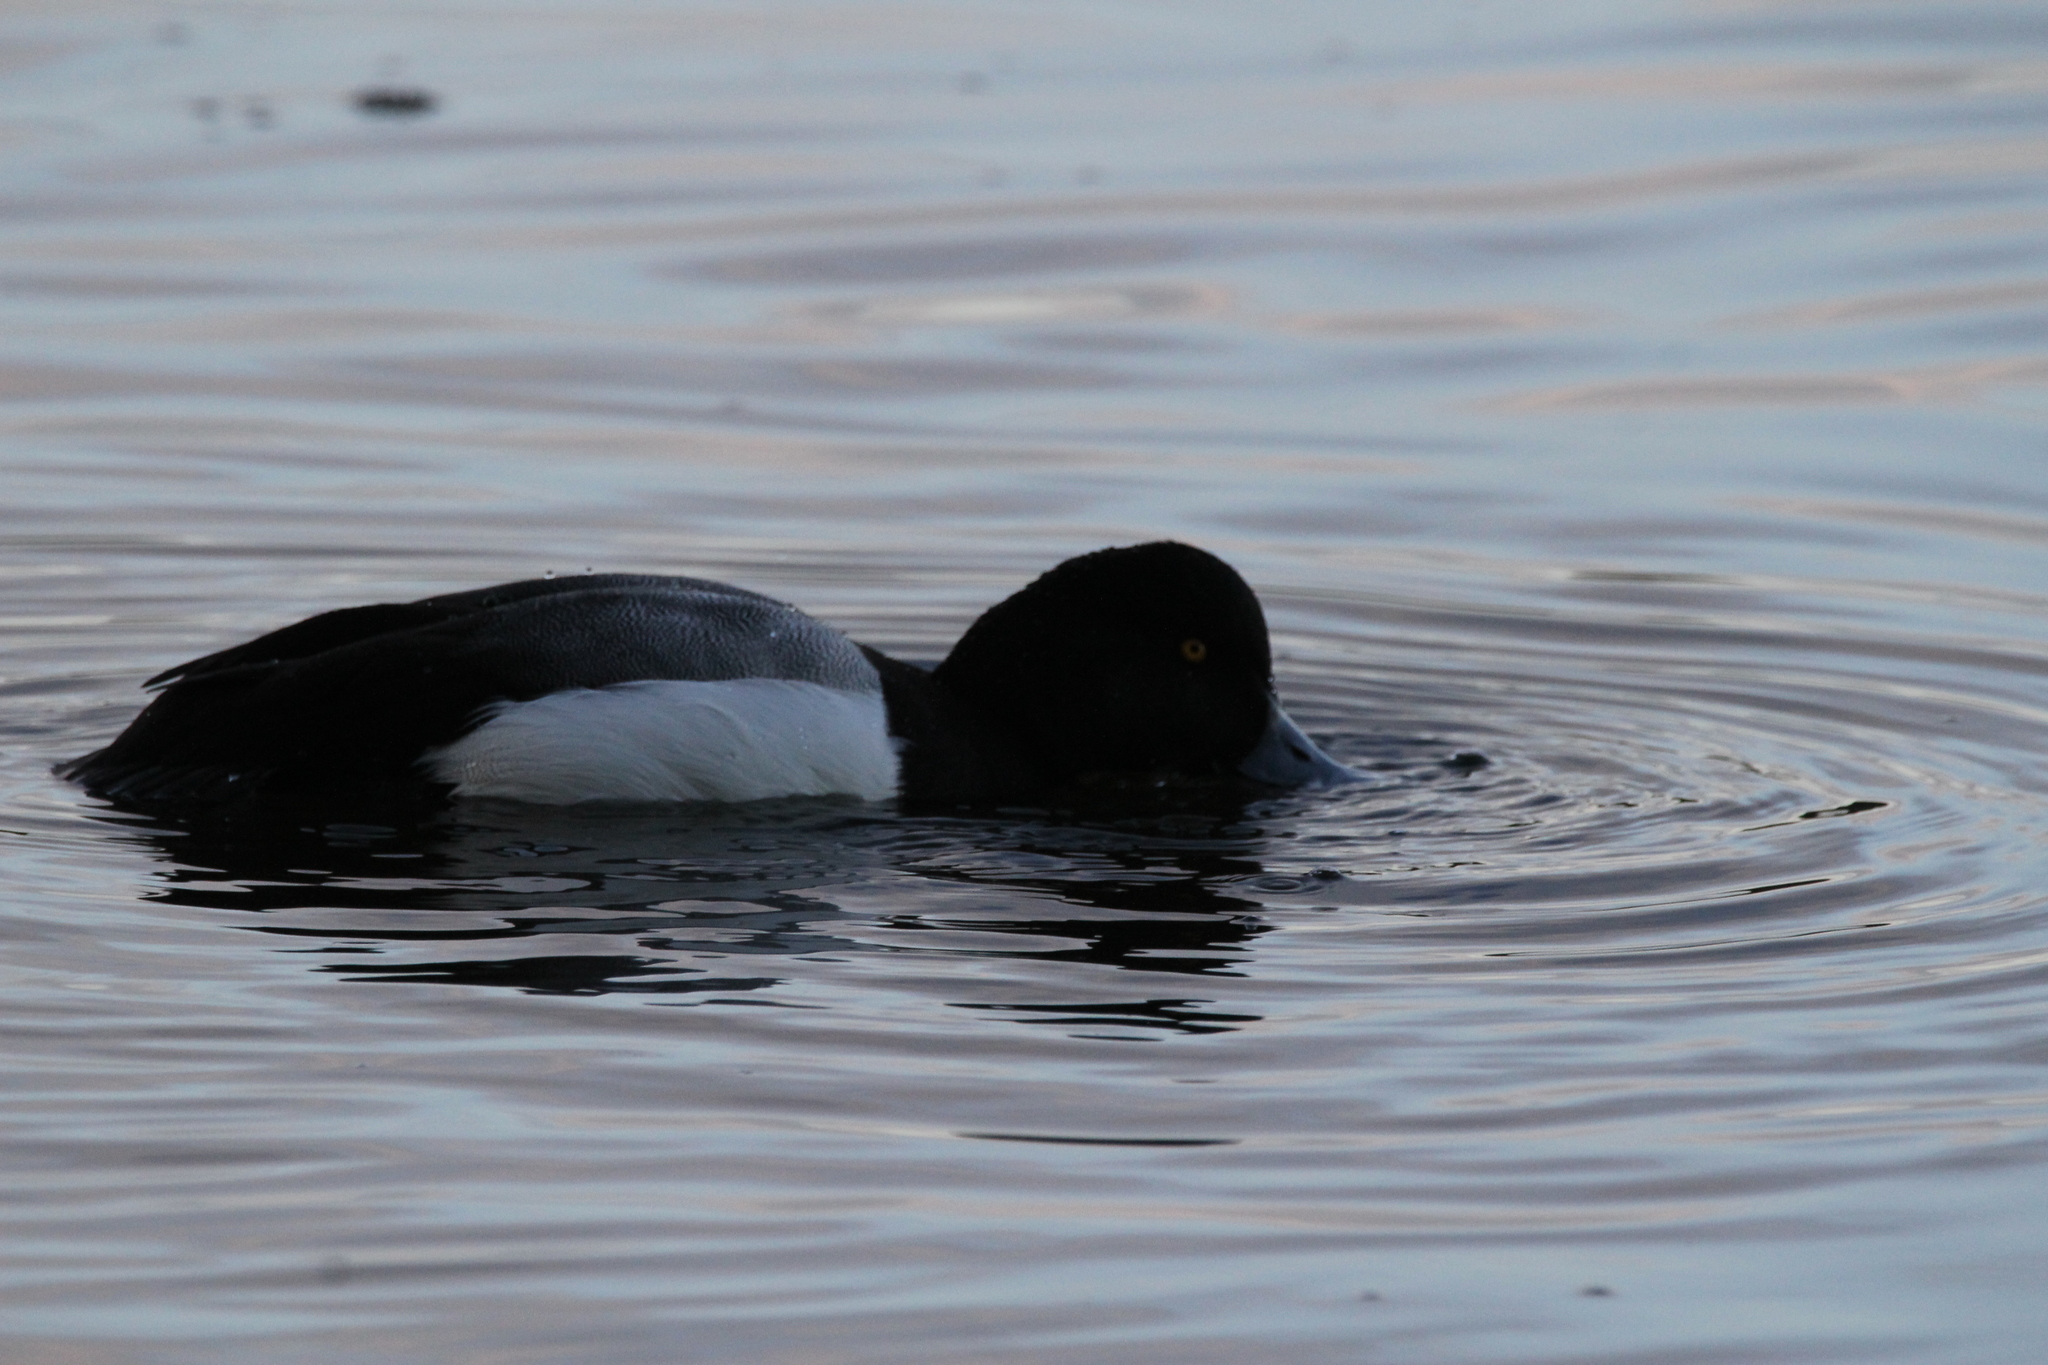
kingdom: Animalia
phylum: Chordata
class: Aves
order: Anseriformes
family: Anatidae
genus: Aythya
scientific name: Aythya
